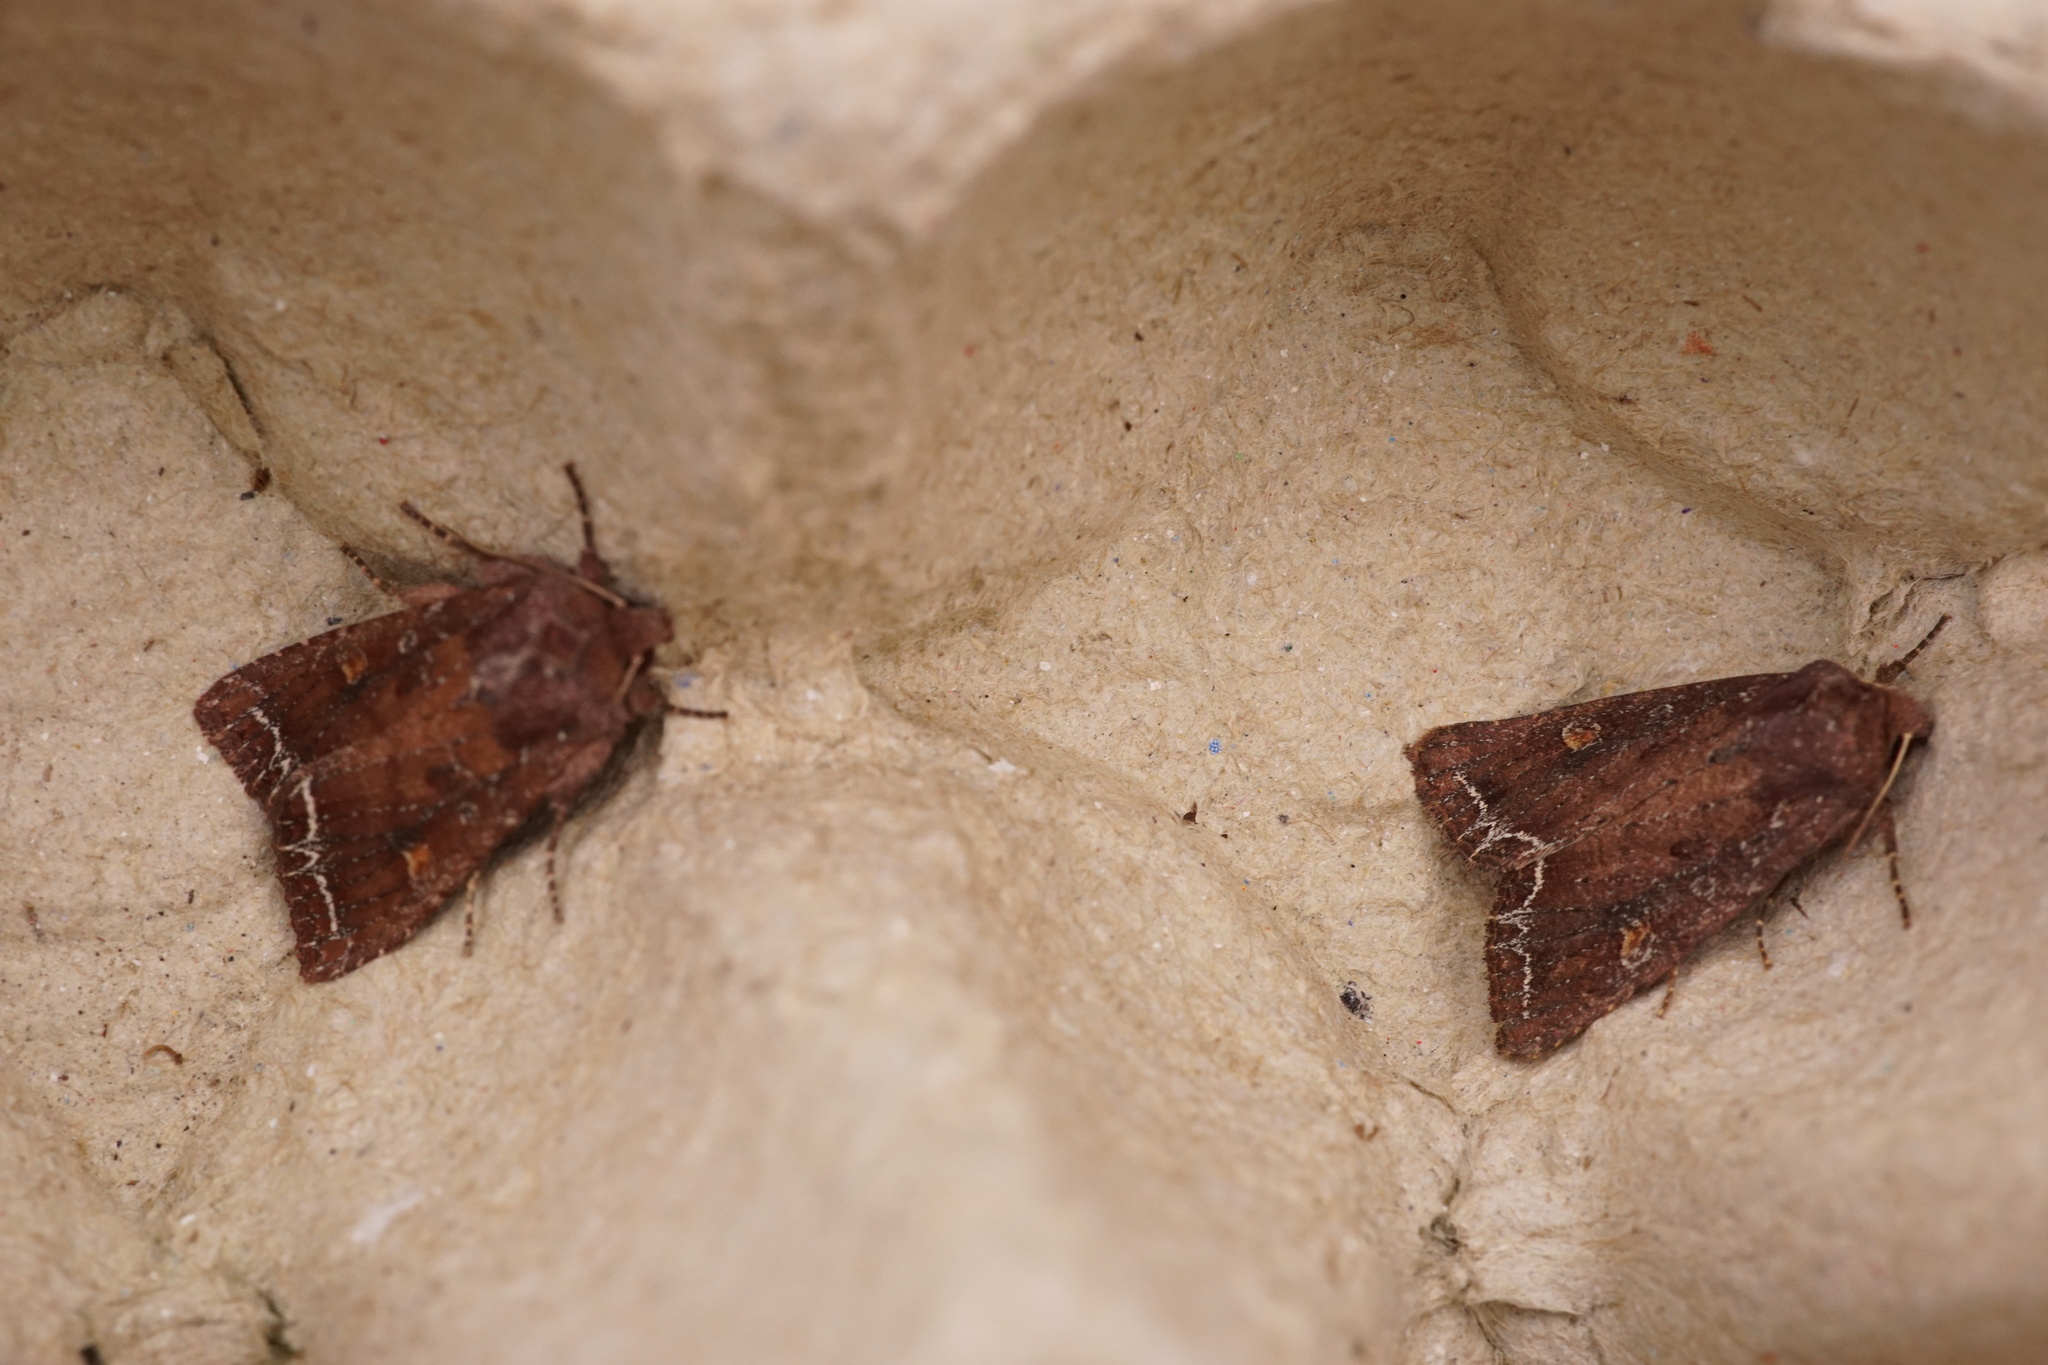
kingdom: Animalia
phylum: Arthropoda
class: Insecta
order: Lepidoptera
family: Noctuidae
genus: Lacanobia
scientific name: Lacanobia oleracea
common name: Bright-line brown-eye
